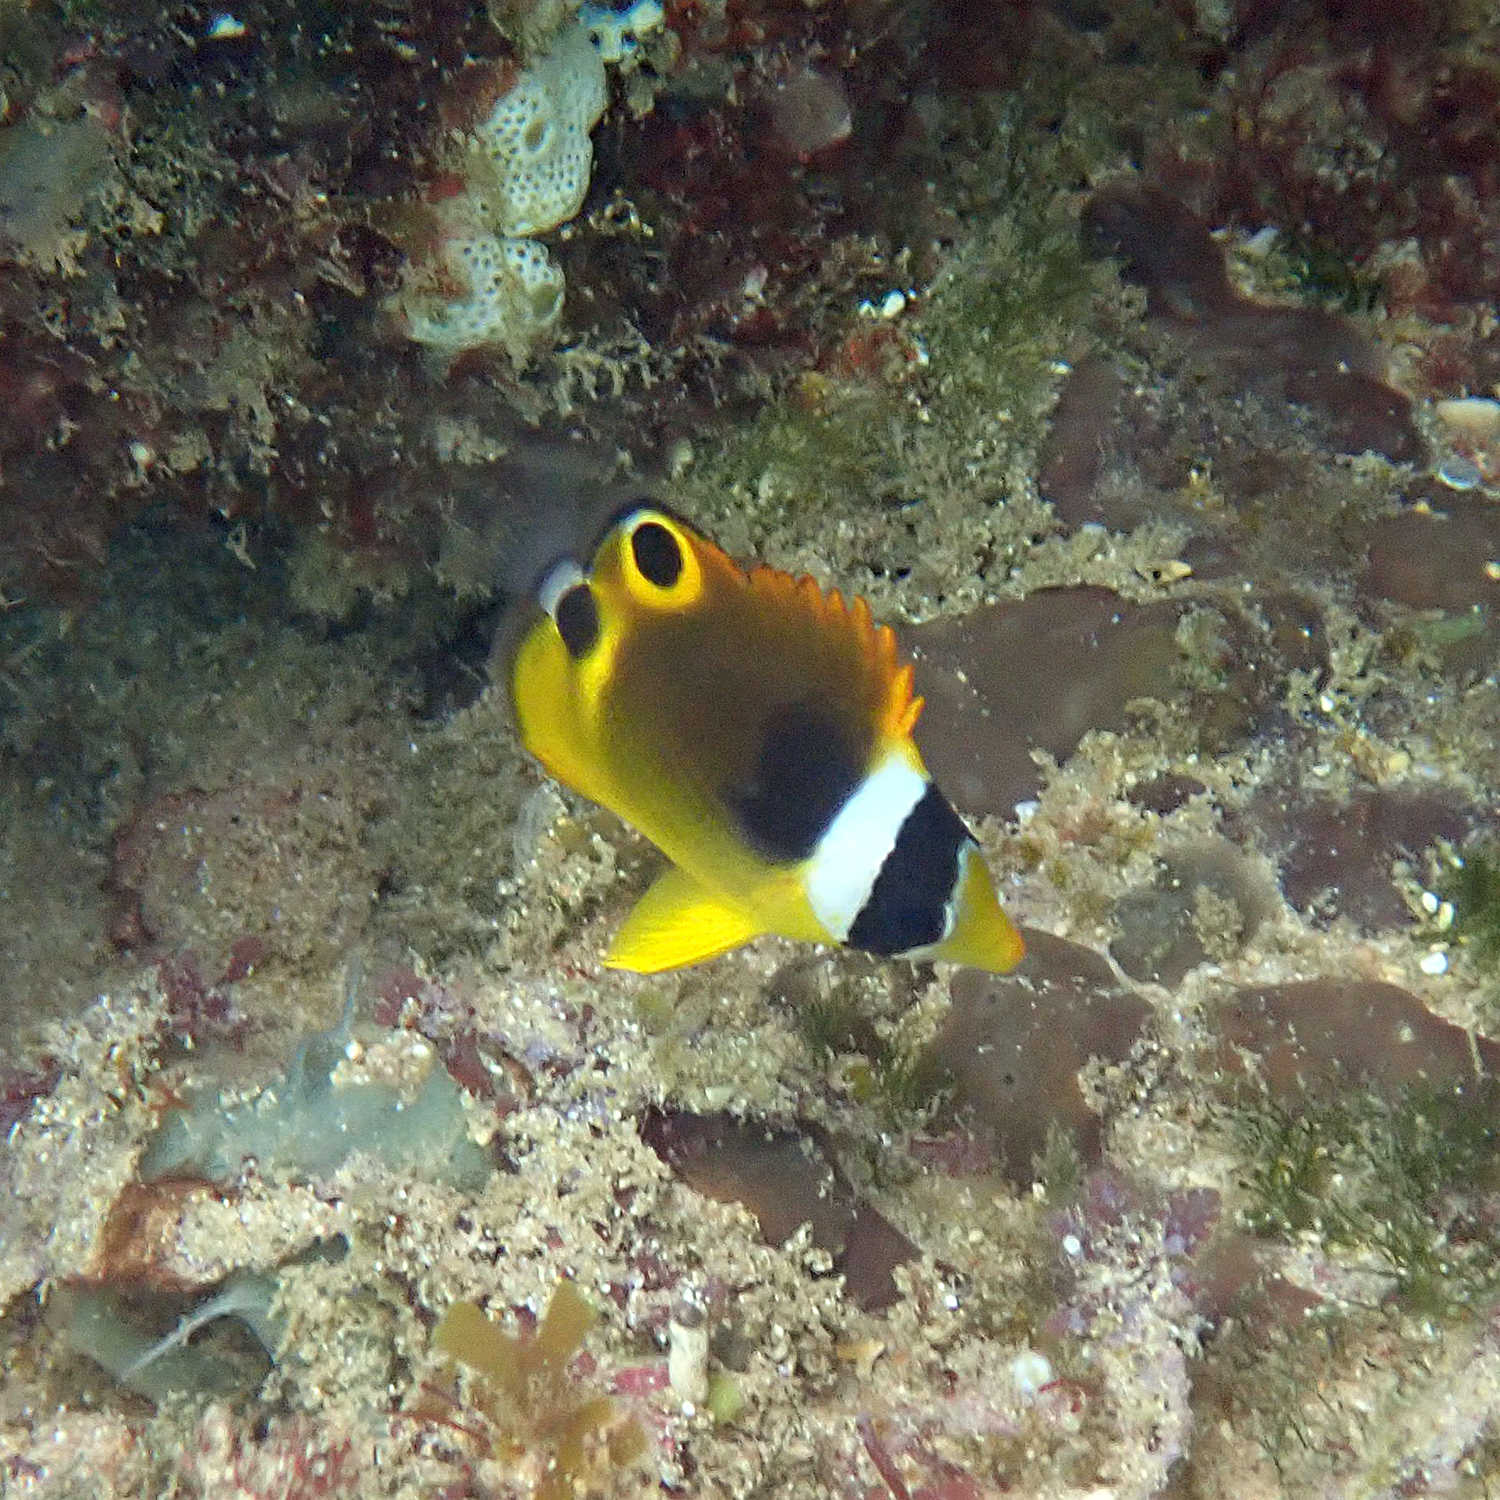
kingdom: Animalia
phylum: Chordata
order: Perciformes
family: Chaetodontidae
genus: Chaetodon
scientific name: Chaetodon lunula
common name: Raccoon butterflyfish
